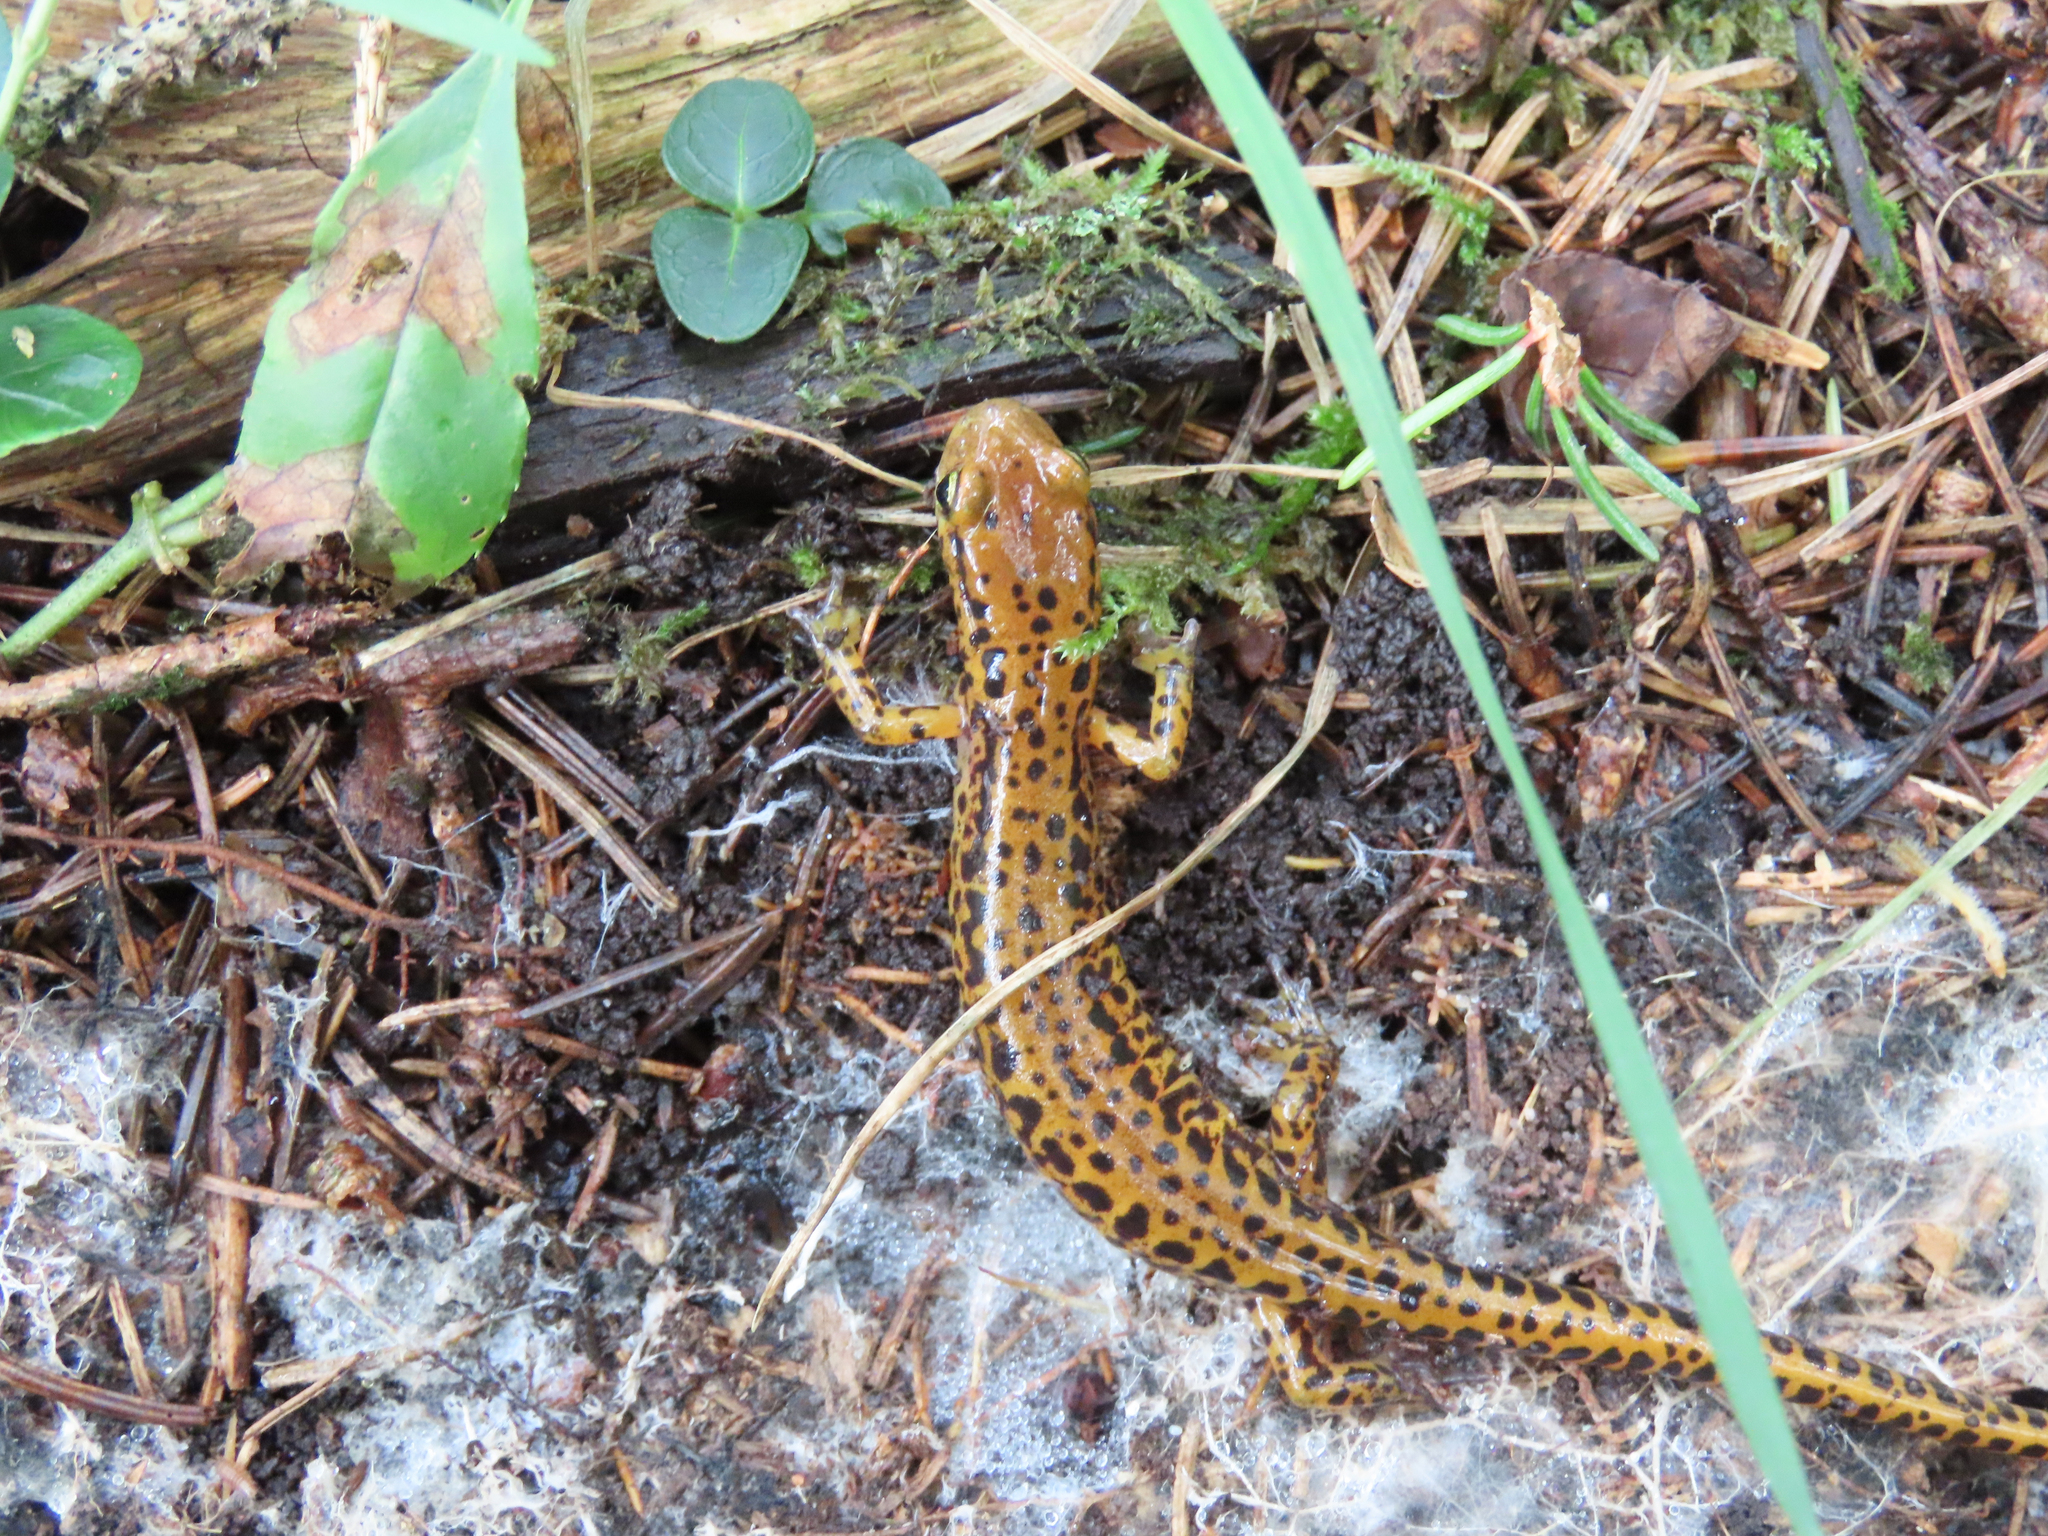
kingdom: Animalia
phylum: Chordata
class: Amphibia
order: Caudata
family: Plethodontidae
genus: Eurycea
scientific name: Eurycea longicauda
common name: Long-tailed salamander
